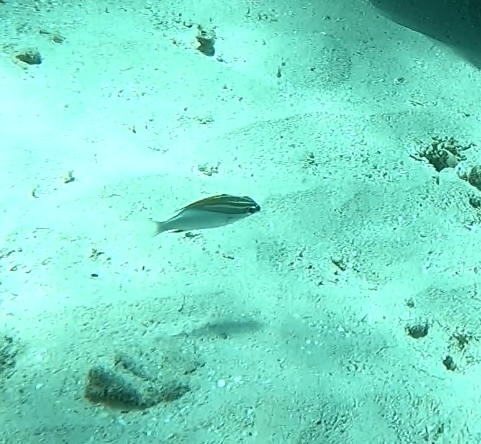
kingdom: Animalia
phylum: Chordata
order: Perciformes
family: Nemipteridae
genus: Scolopsis
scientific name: Scolopsis bilineata
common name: Two-lined monocle bream
